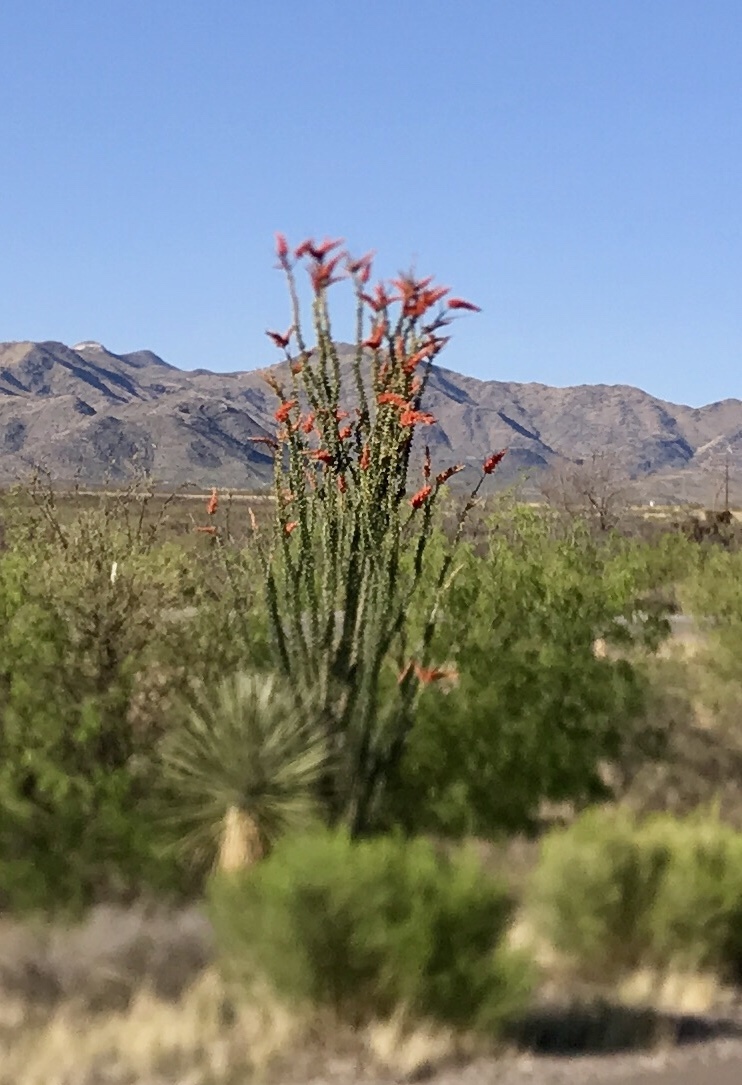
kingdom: Plantae
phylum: Tracheophyta
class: Magnoliopsida
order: Ericales
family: Fouquieriaceae
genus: Fouquieria
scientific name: Fouquieria splendens
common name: Vine-cactus
